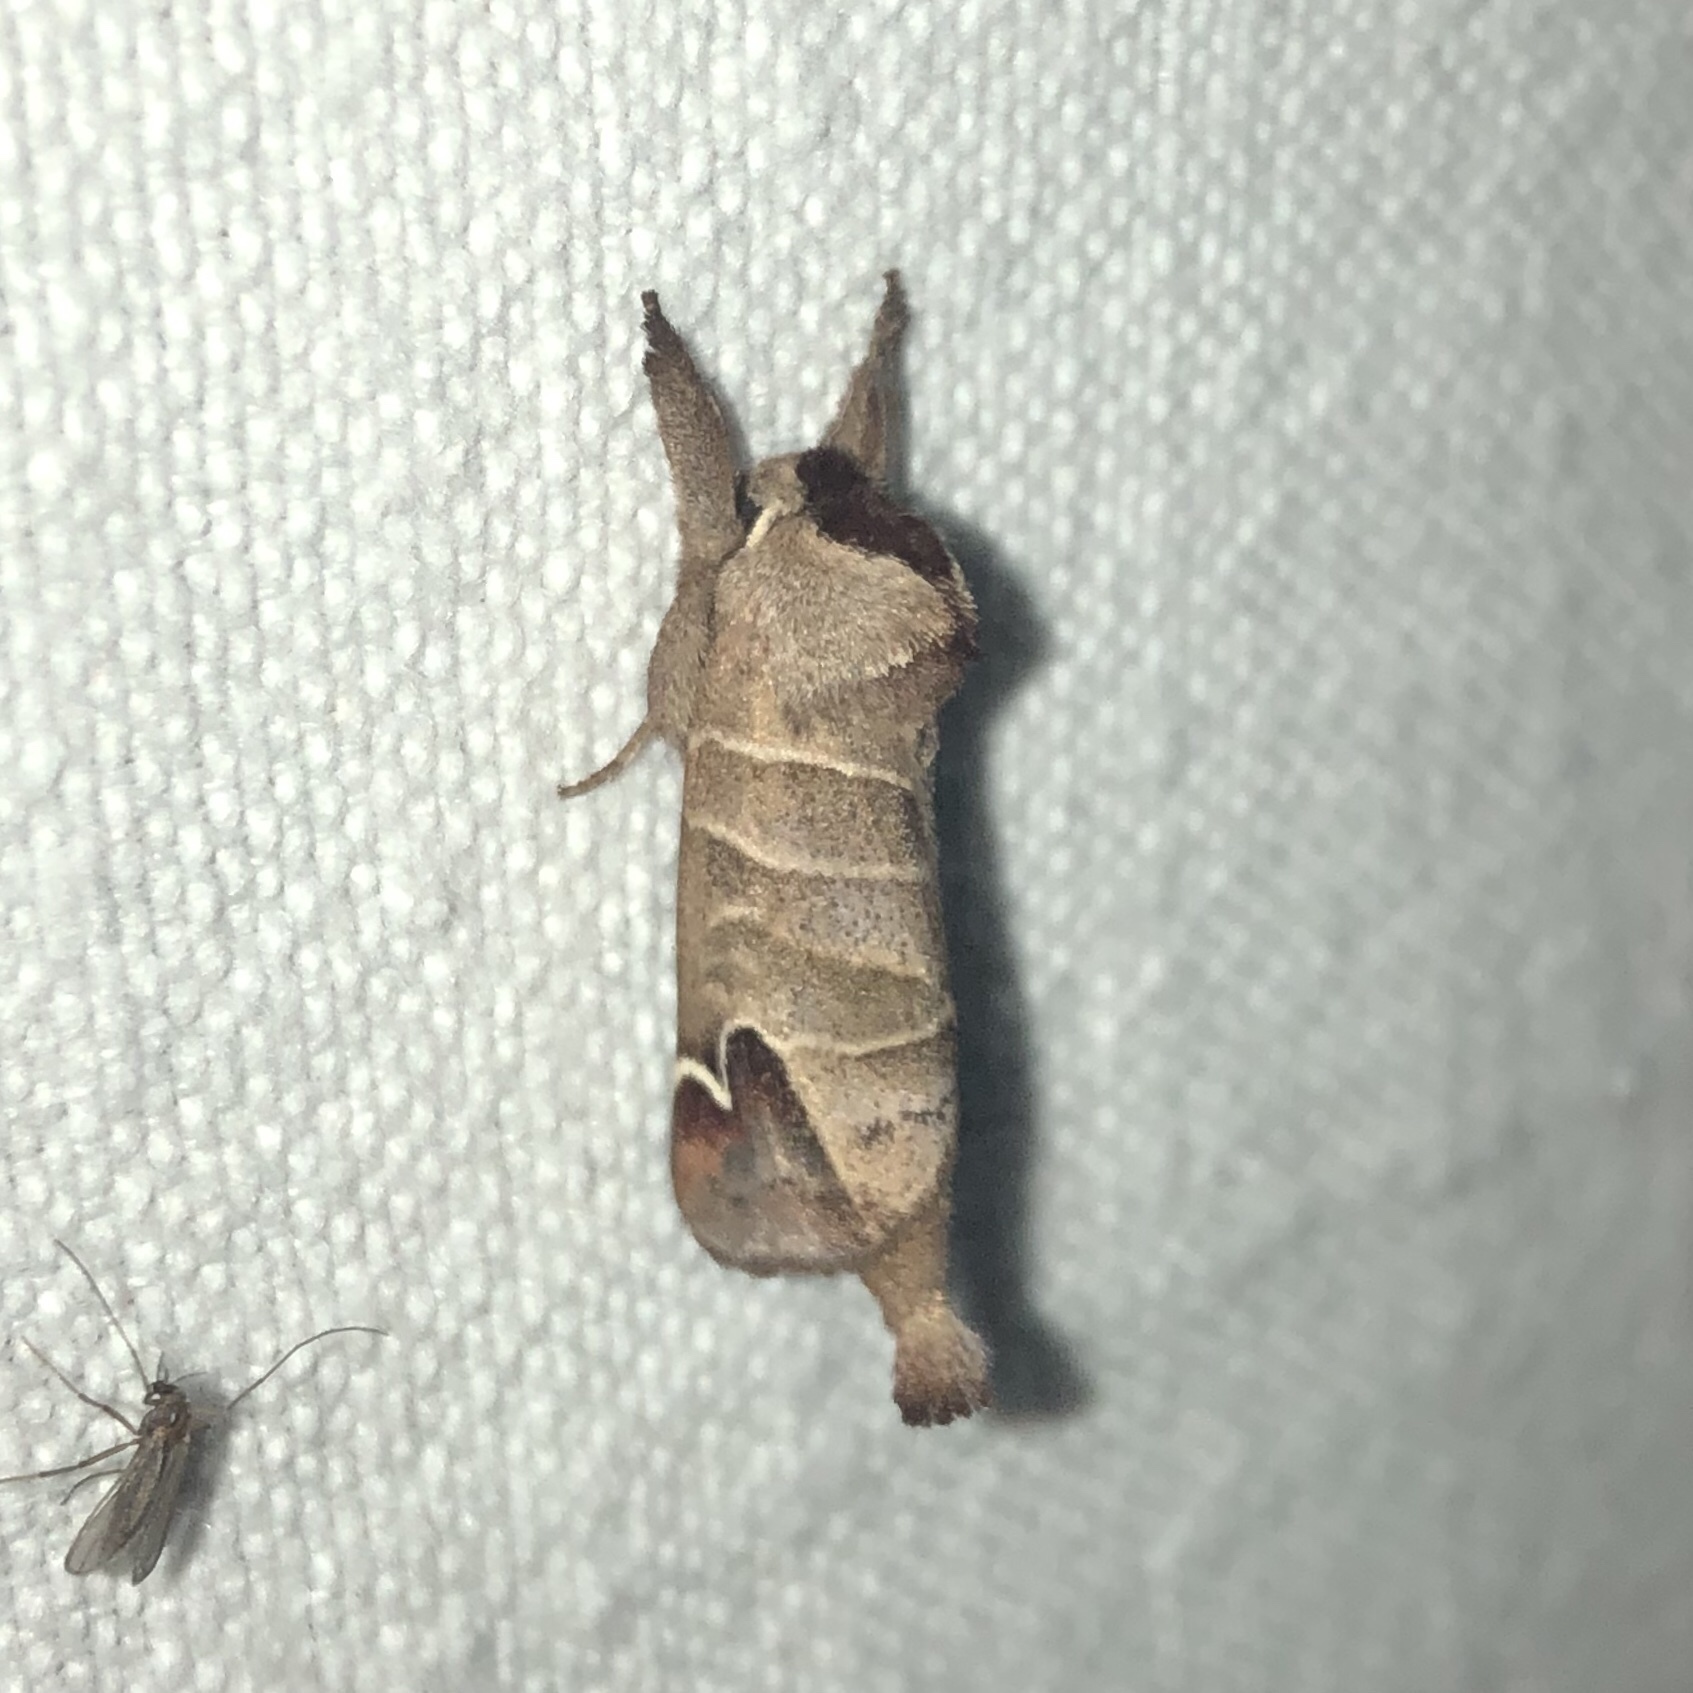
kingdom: Animalia
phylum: Arthropoda
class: Insecta
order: Lepidoptera
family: Notodontidae
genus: Clostera
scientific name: Clostera albosigma
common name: Sigmoid prominent
